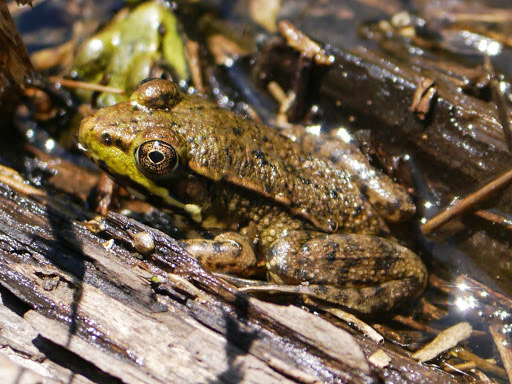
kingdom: Animalia
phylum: Chordata
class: Amphibia
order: Anura
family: Ranidae
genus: Lithobates
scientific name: Lithobates clamitans
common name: Green frog
